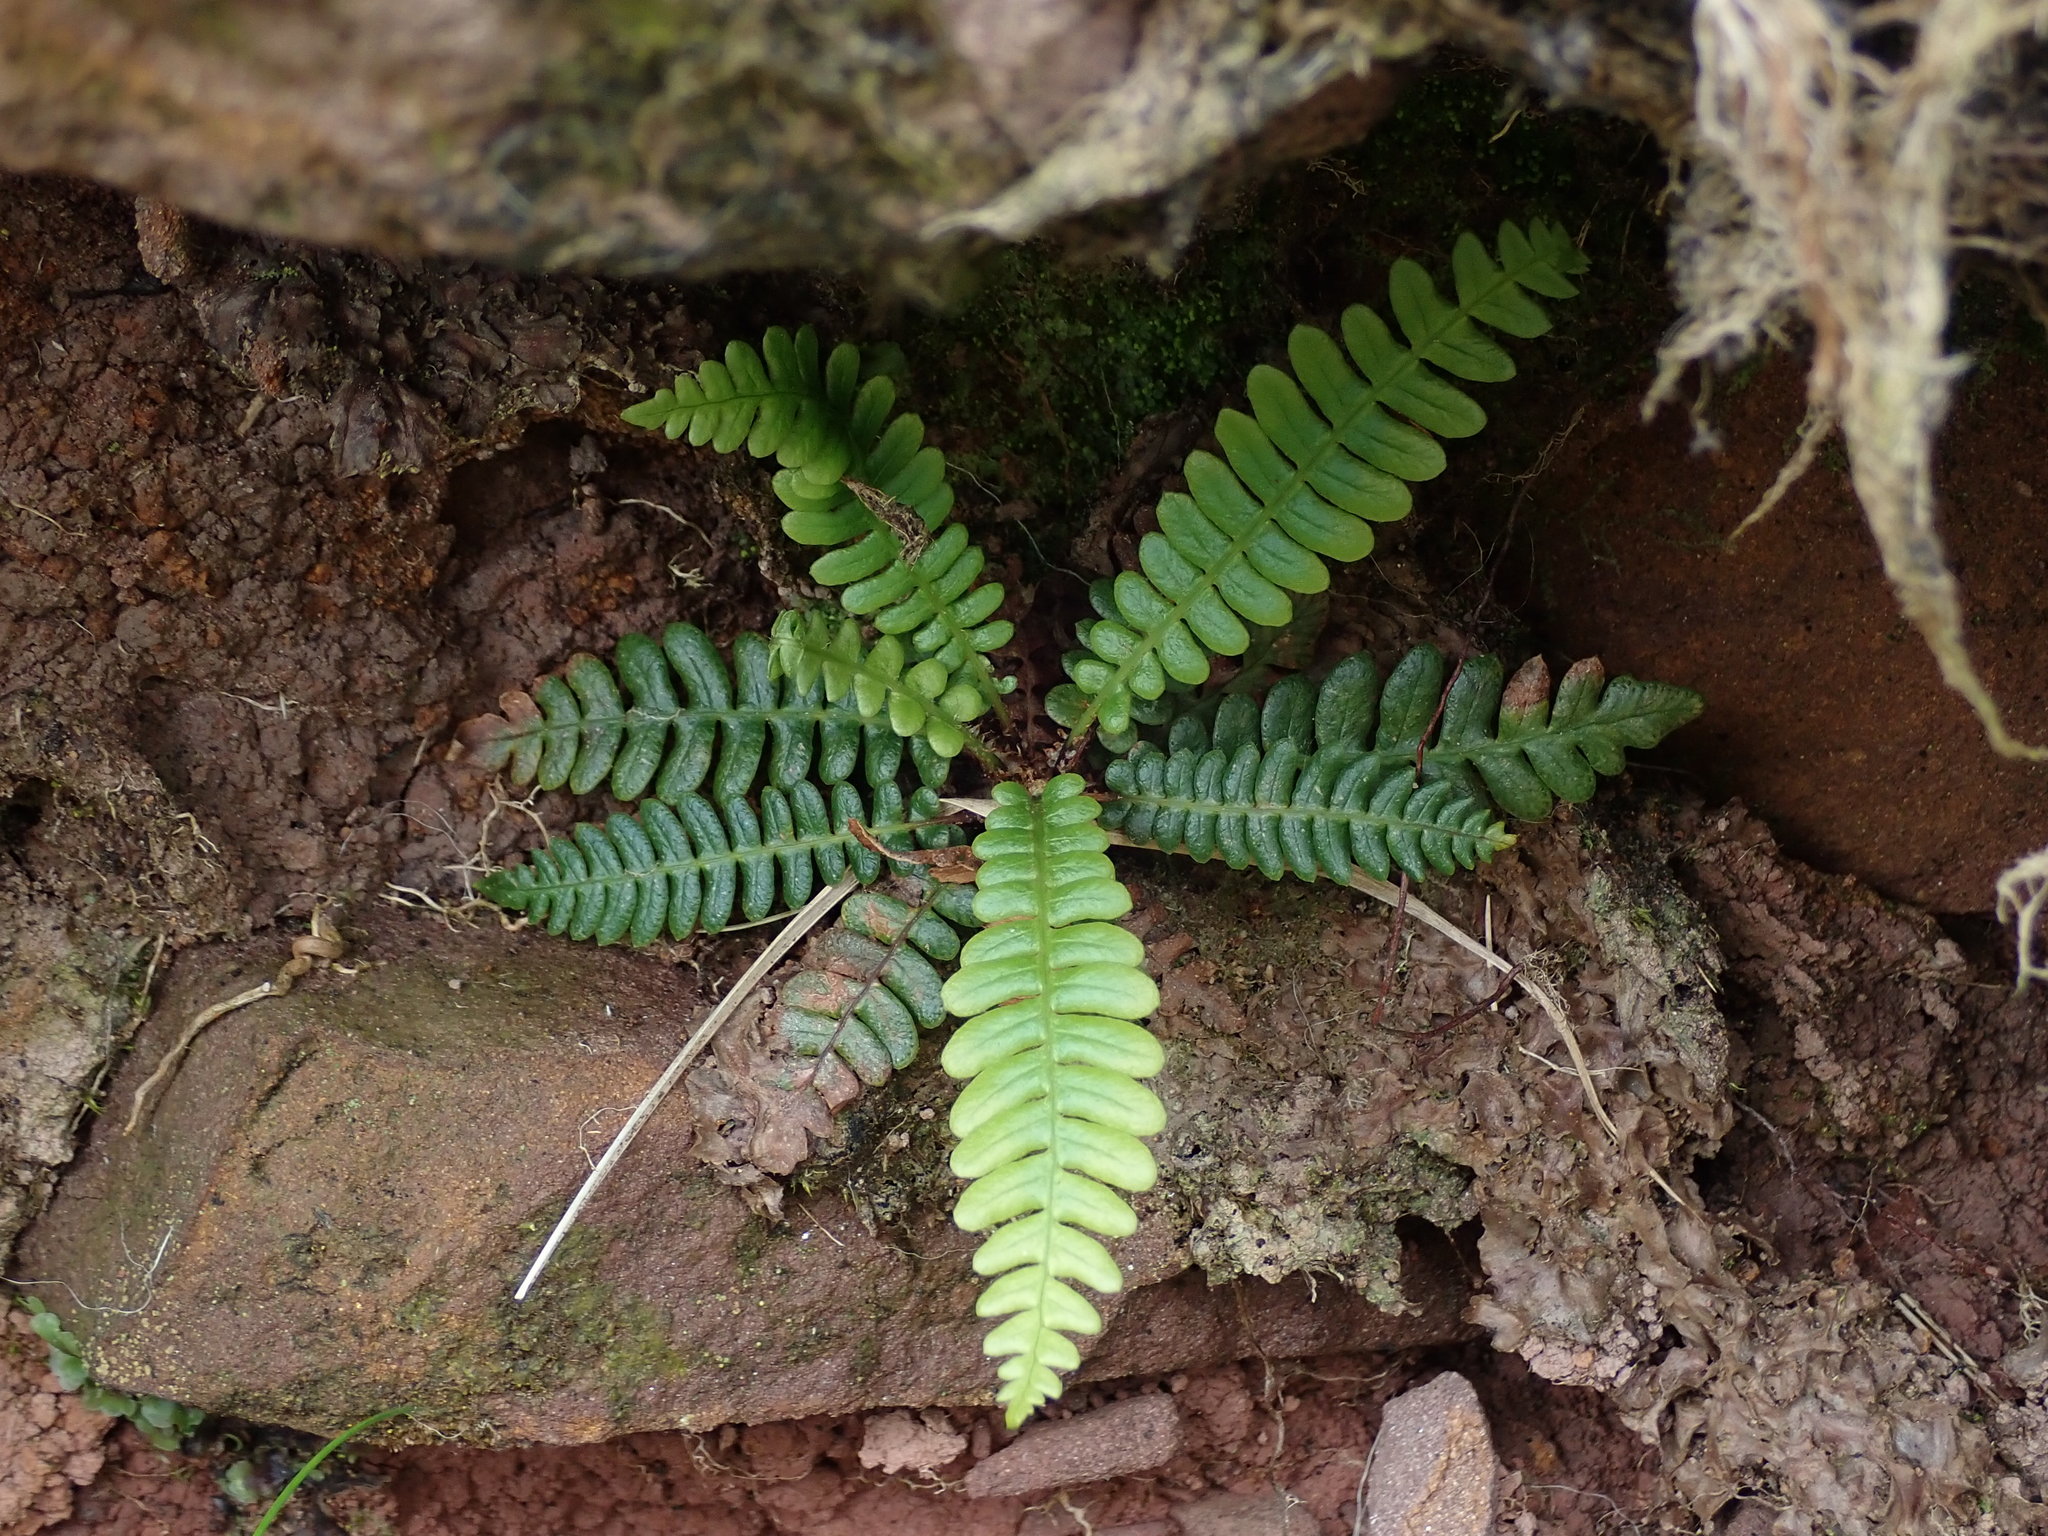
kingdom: Plantae
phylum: Tracheophyta
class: Polypodiopsida
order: Polypodiales
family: Blechnaceae
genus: Struthiopteris
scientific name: Struthiopteris spicant
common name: Deer fern
